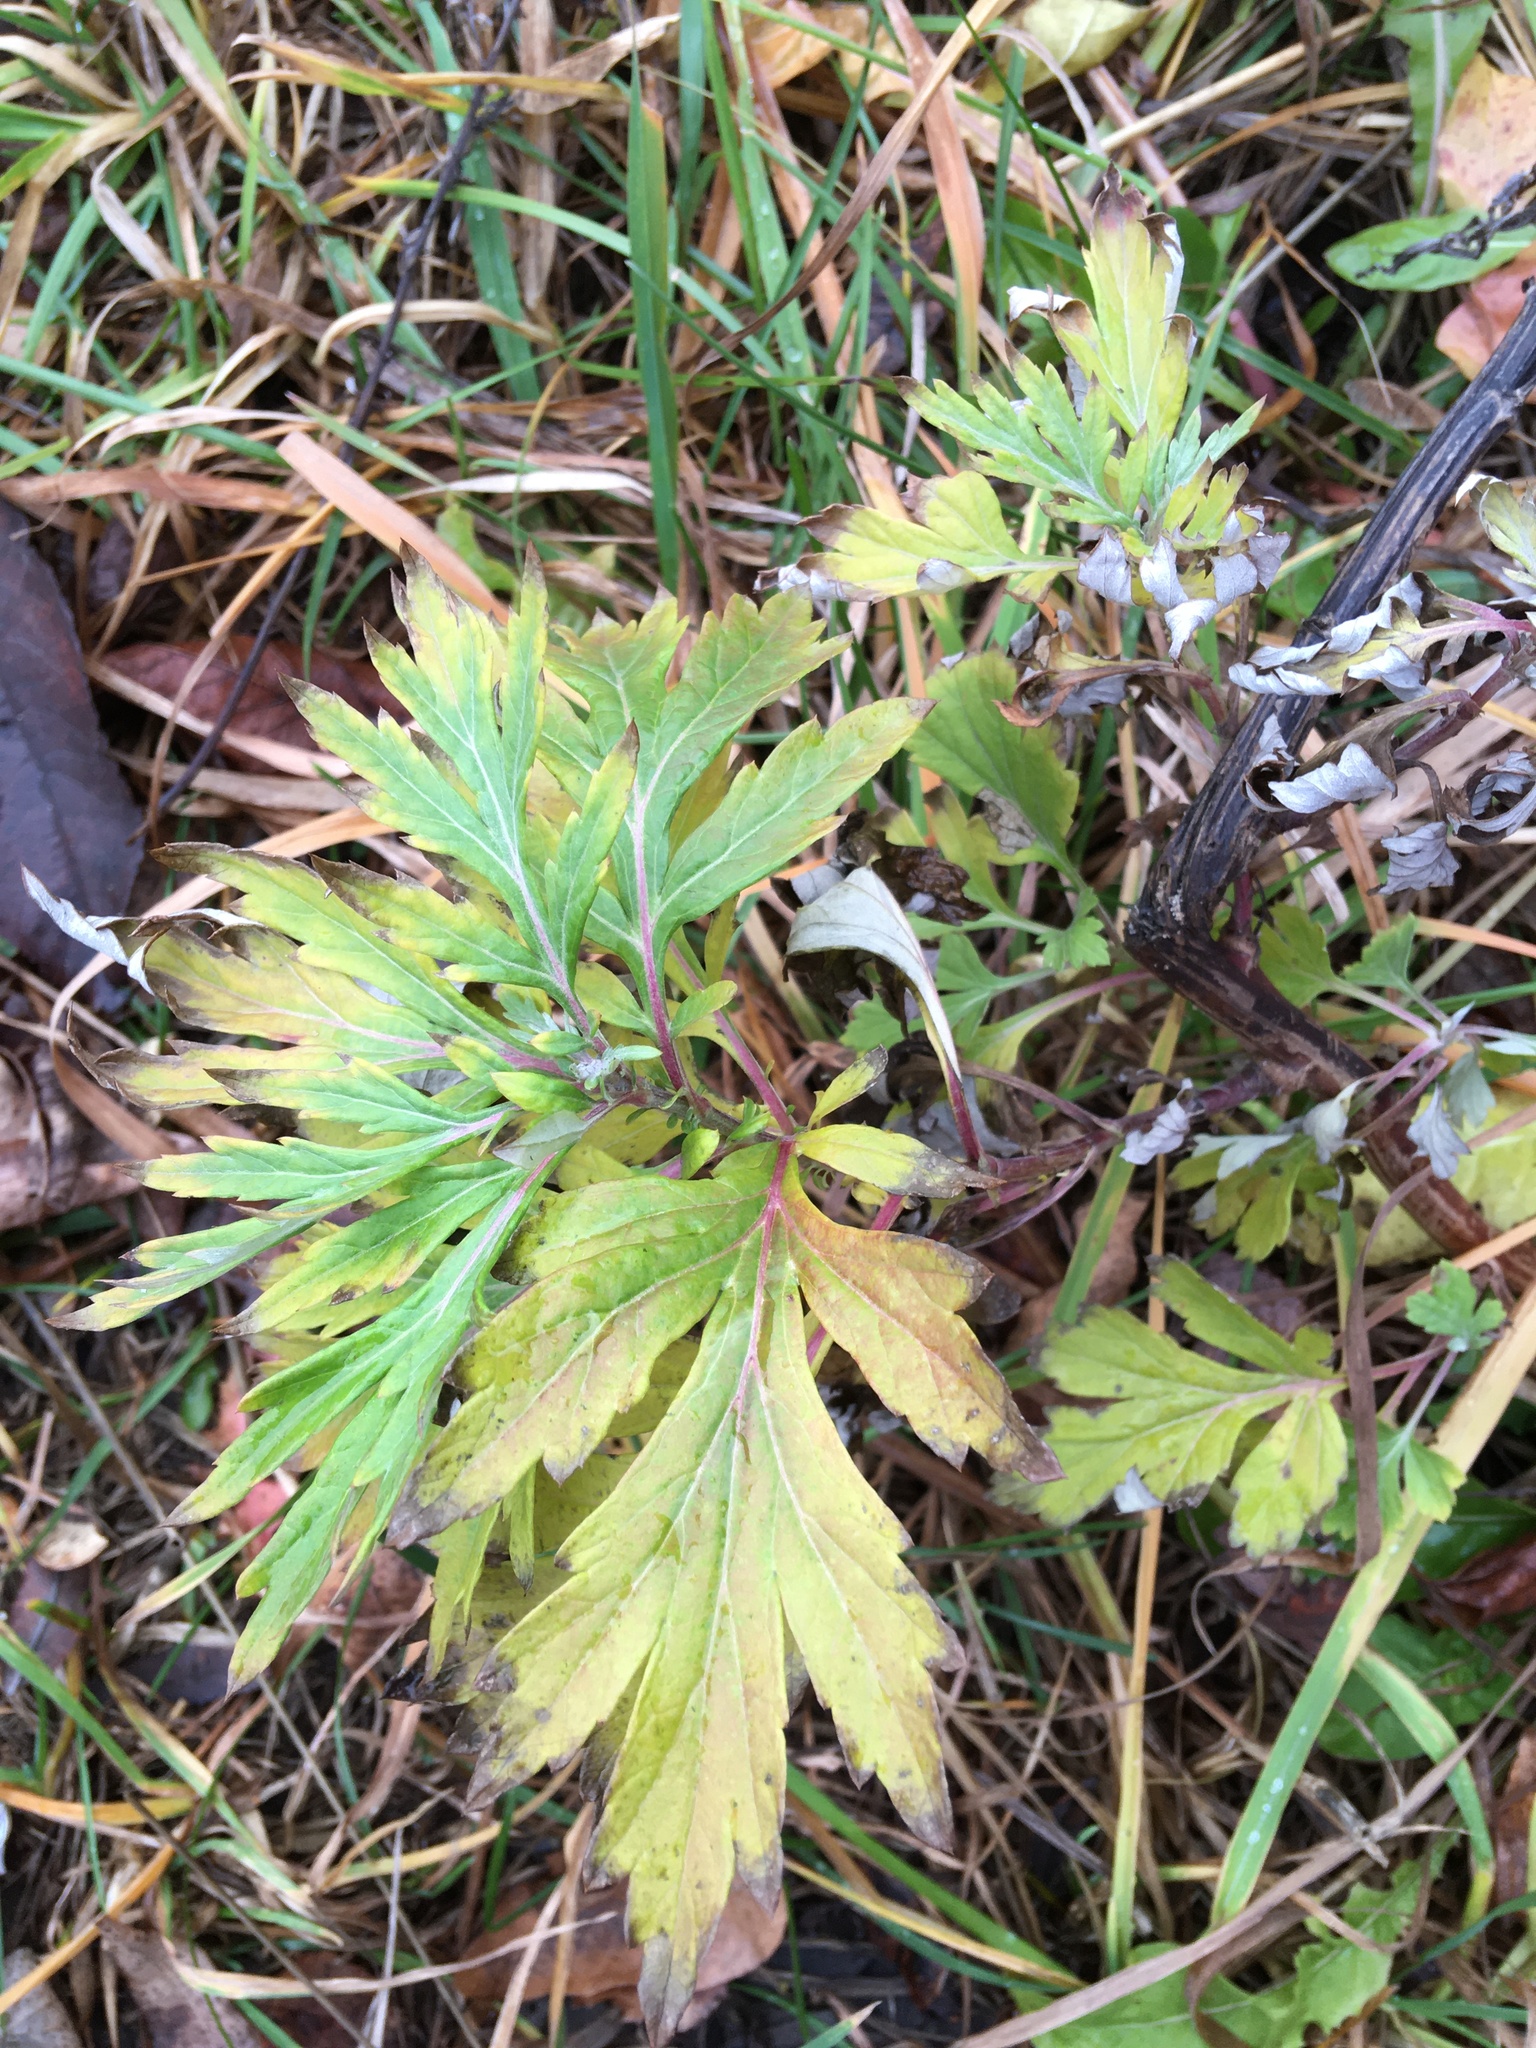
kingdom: Plantae
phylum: Tracheophyta
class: Magnoliopsida
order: Asterales
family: Asteraceae
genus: Artemisia
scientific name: Artemisia vulgaris
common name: Mugwort
